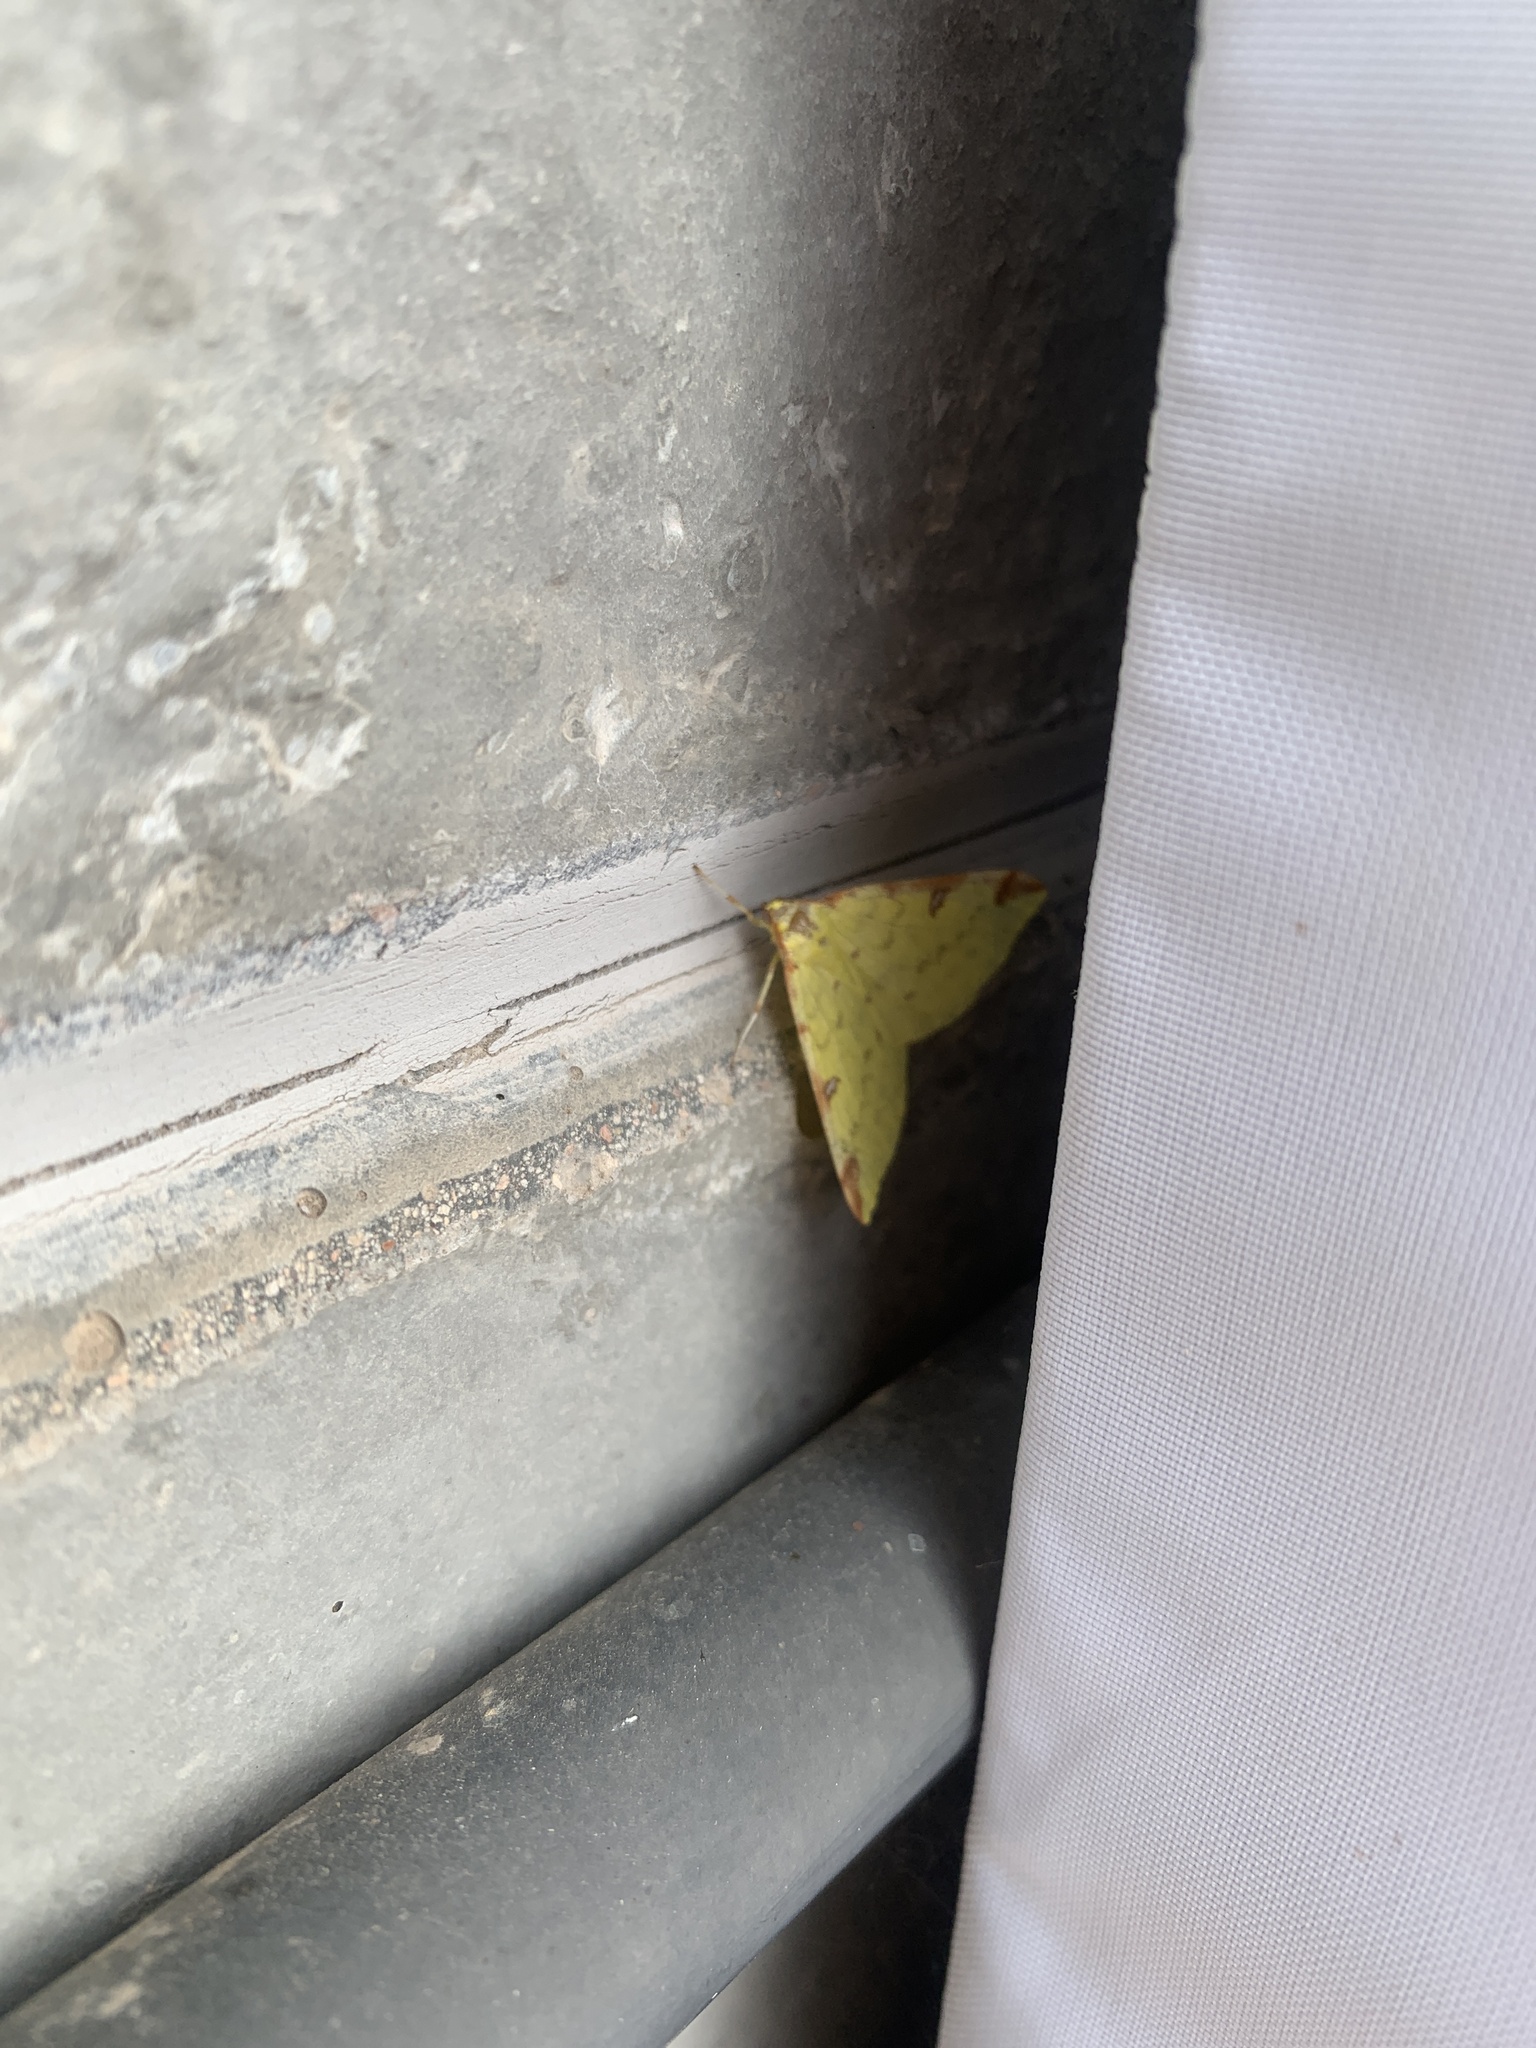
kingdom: Animalia
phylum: Arthropoda
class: Insecta
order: Lepidoptera
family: Geometridae
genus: Opisthograptis
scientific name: Opisthograptis luteolata
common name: Brimstone moth
